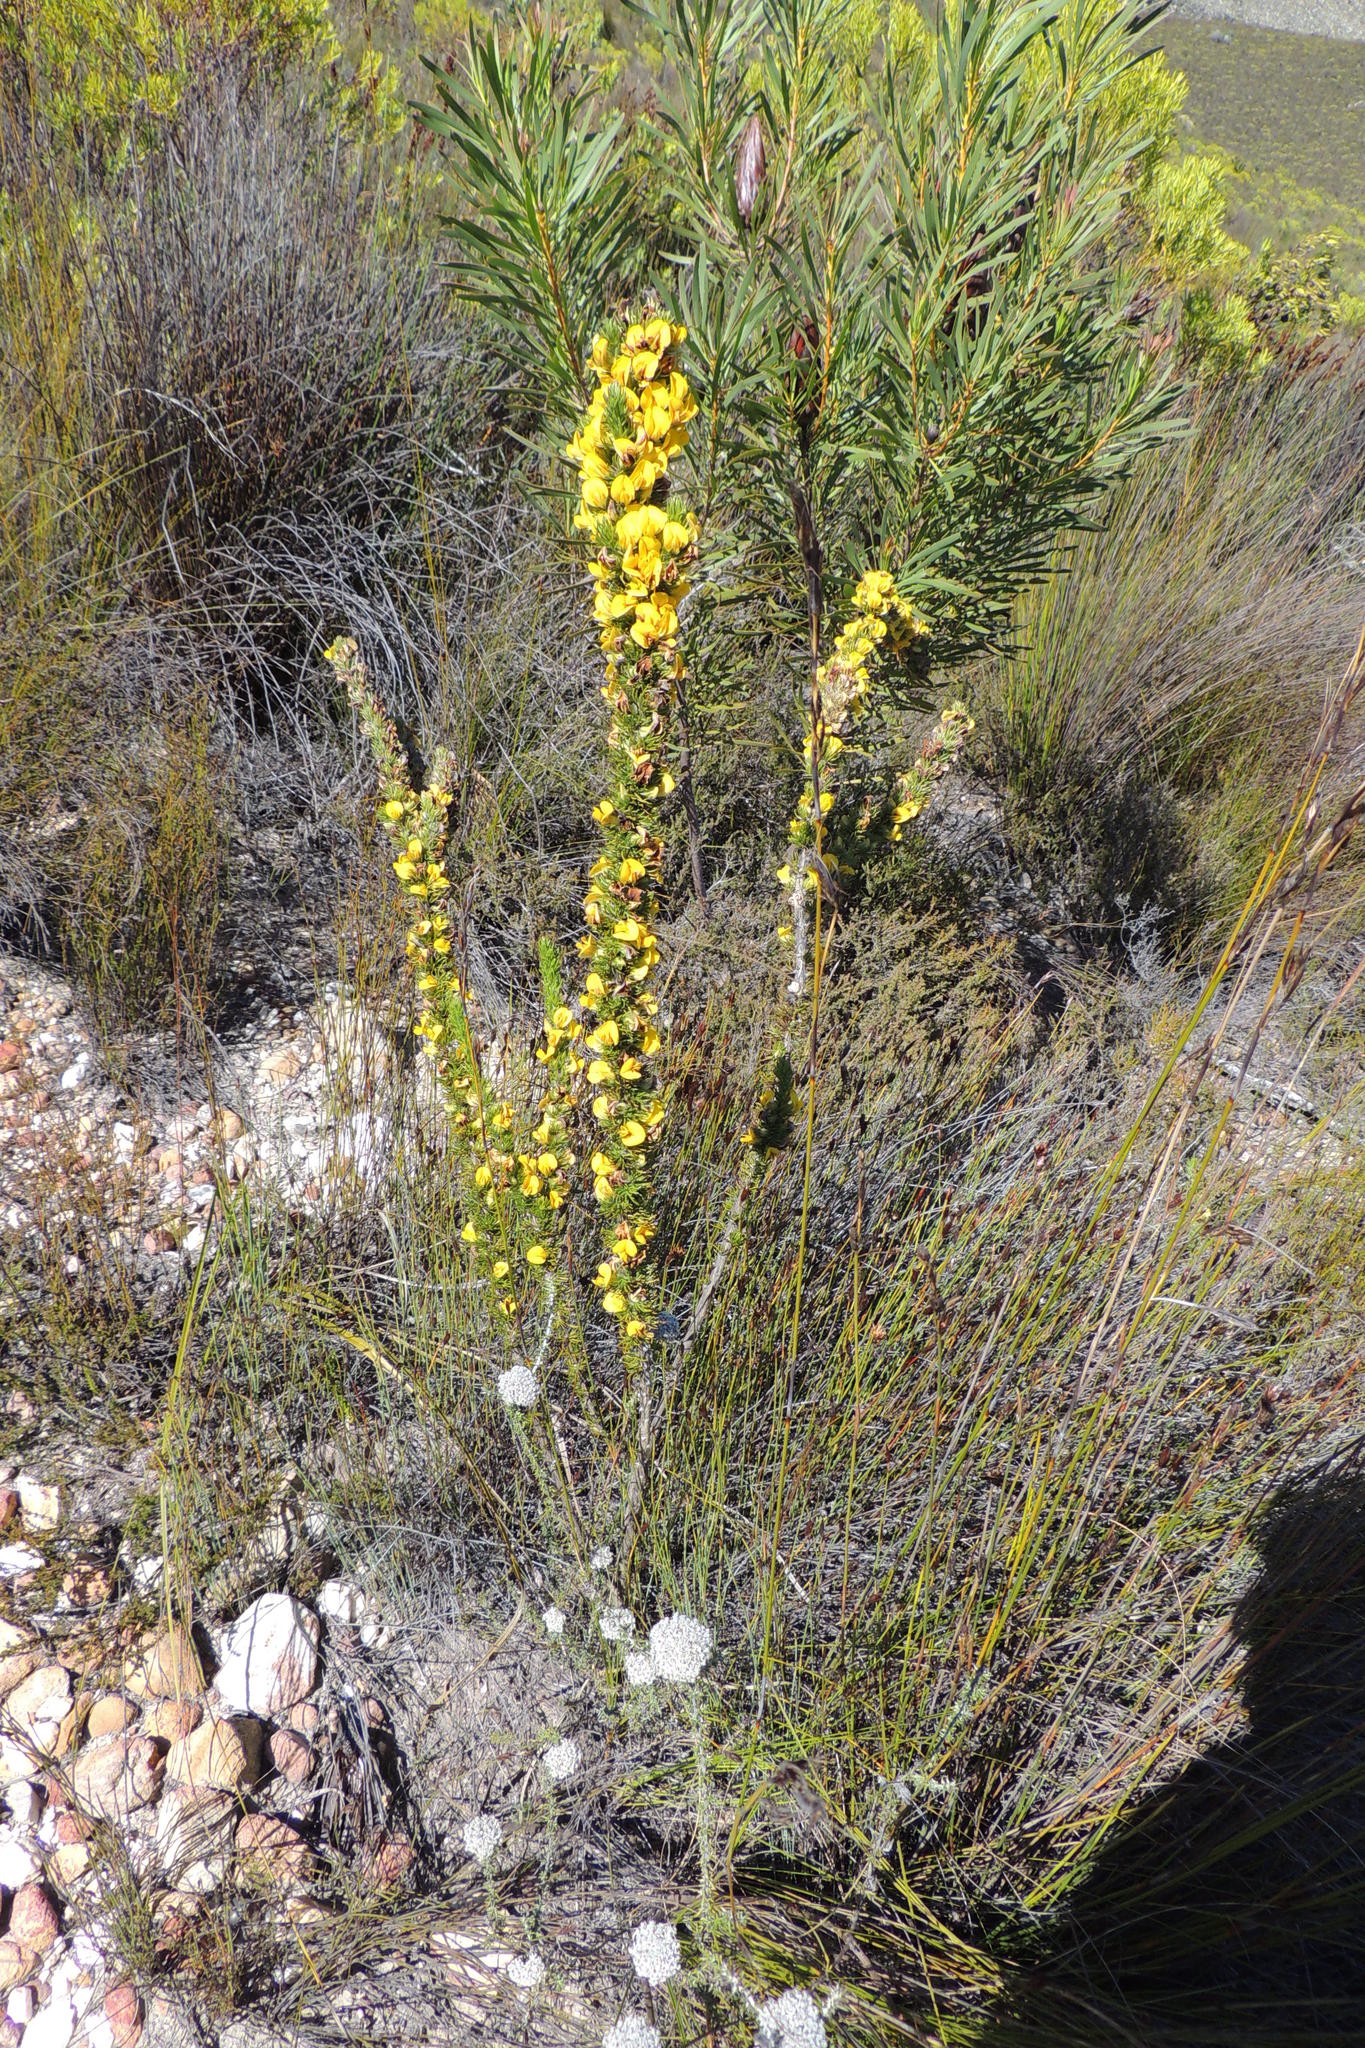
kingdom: Plantae
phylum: Tracheophyta
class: Magnoliopsida
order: Fabales
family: Fabaceae
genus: Aspalathus
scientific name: Aspalathus acanthes
